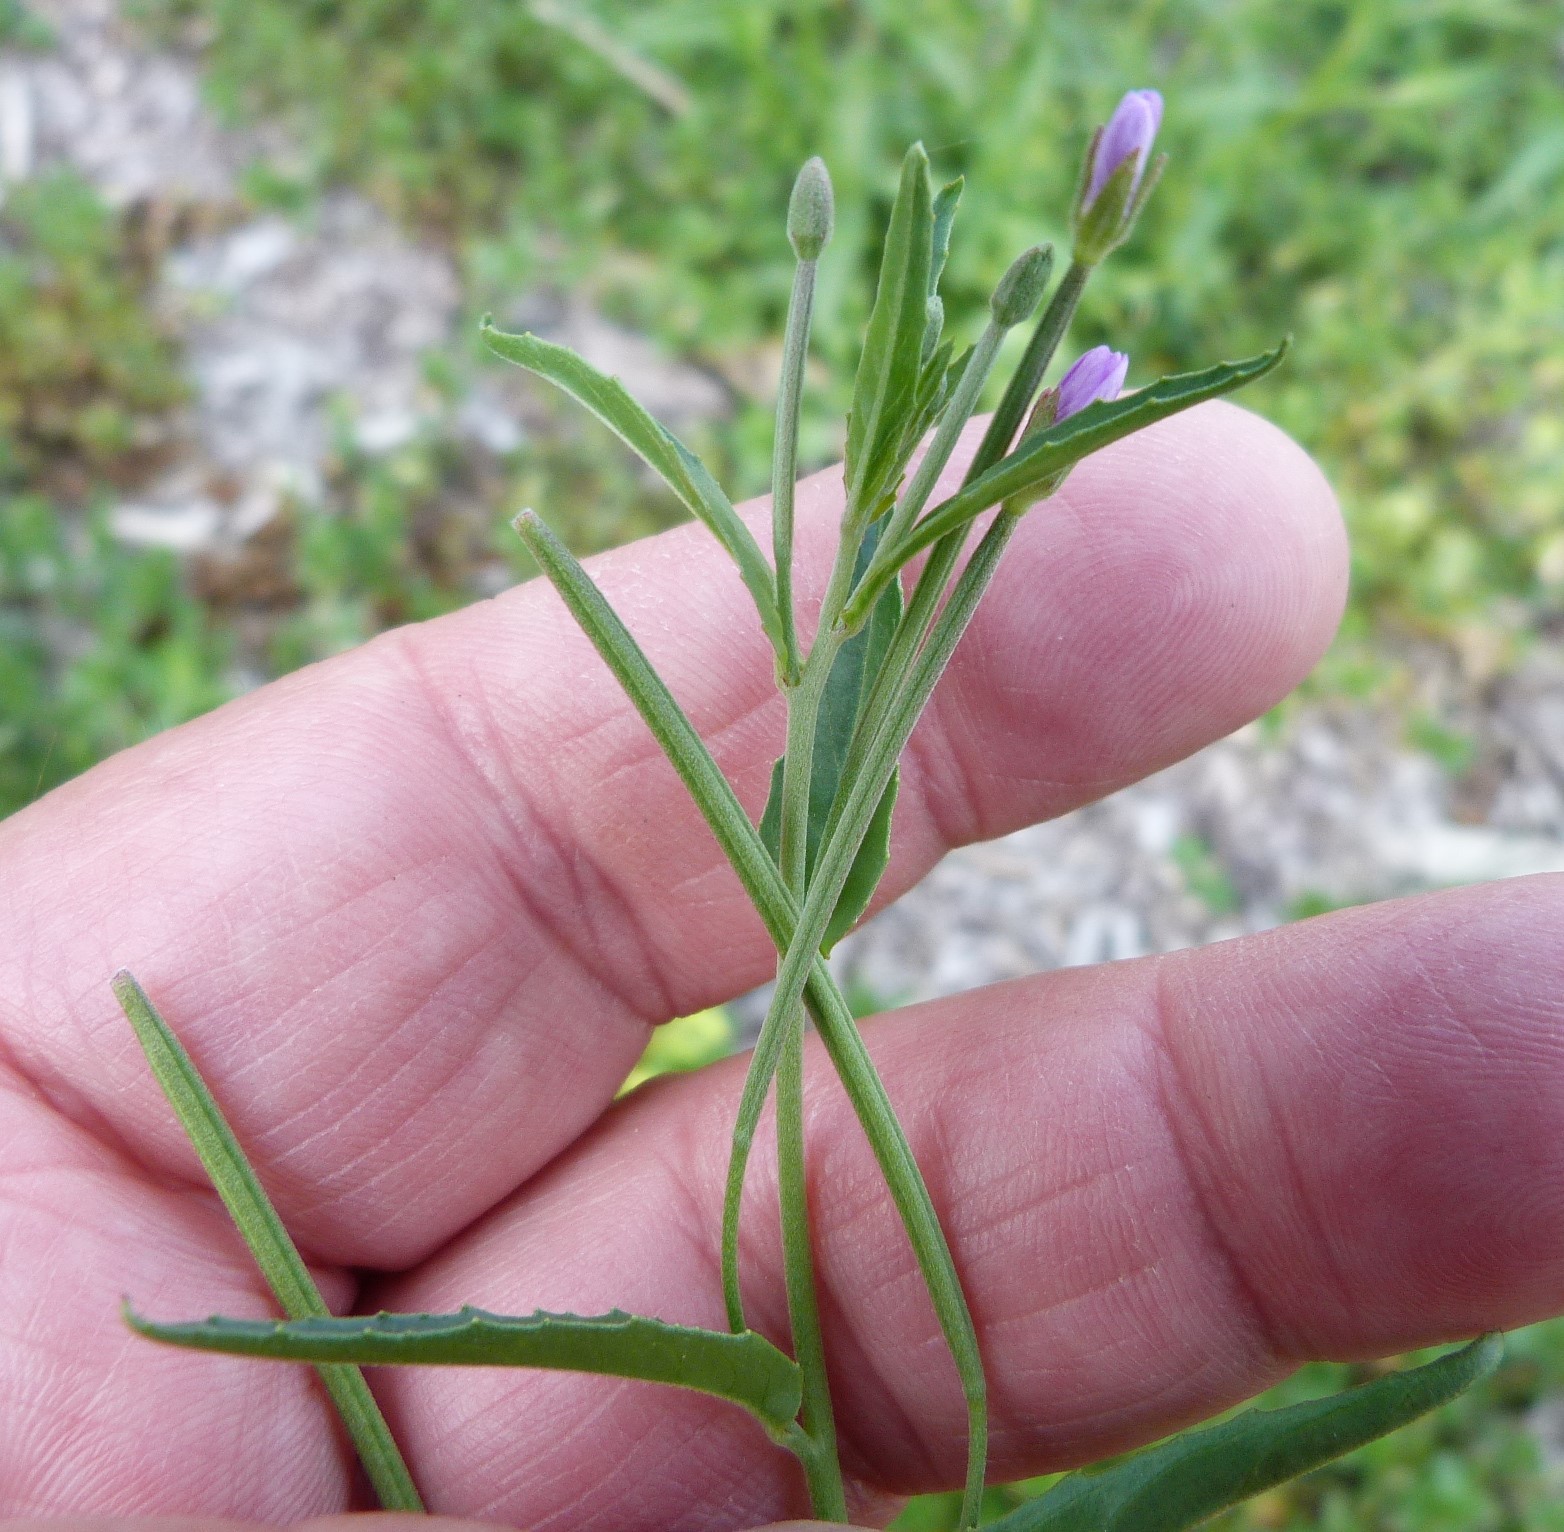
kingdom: Plantae
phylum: Tracheophyta
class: Magnoliopsida
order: Myrtales
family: Onagraceae
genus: Epilobium
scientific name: Epilobium tetragonum
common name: Square-stemmed willowherb
